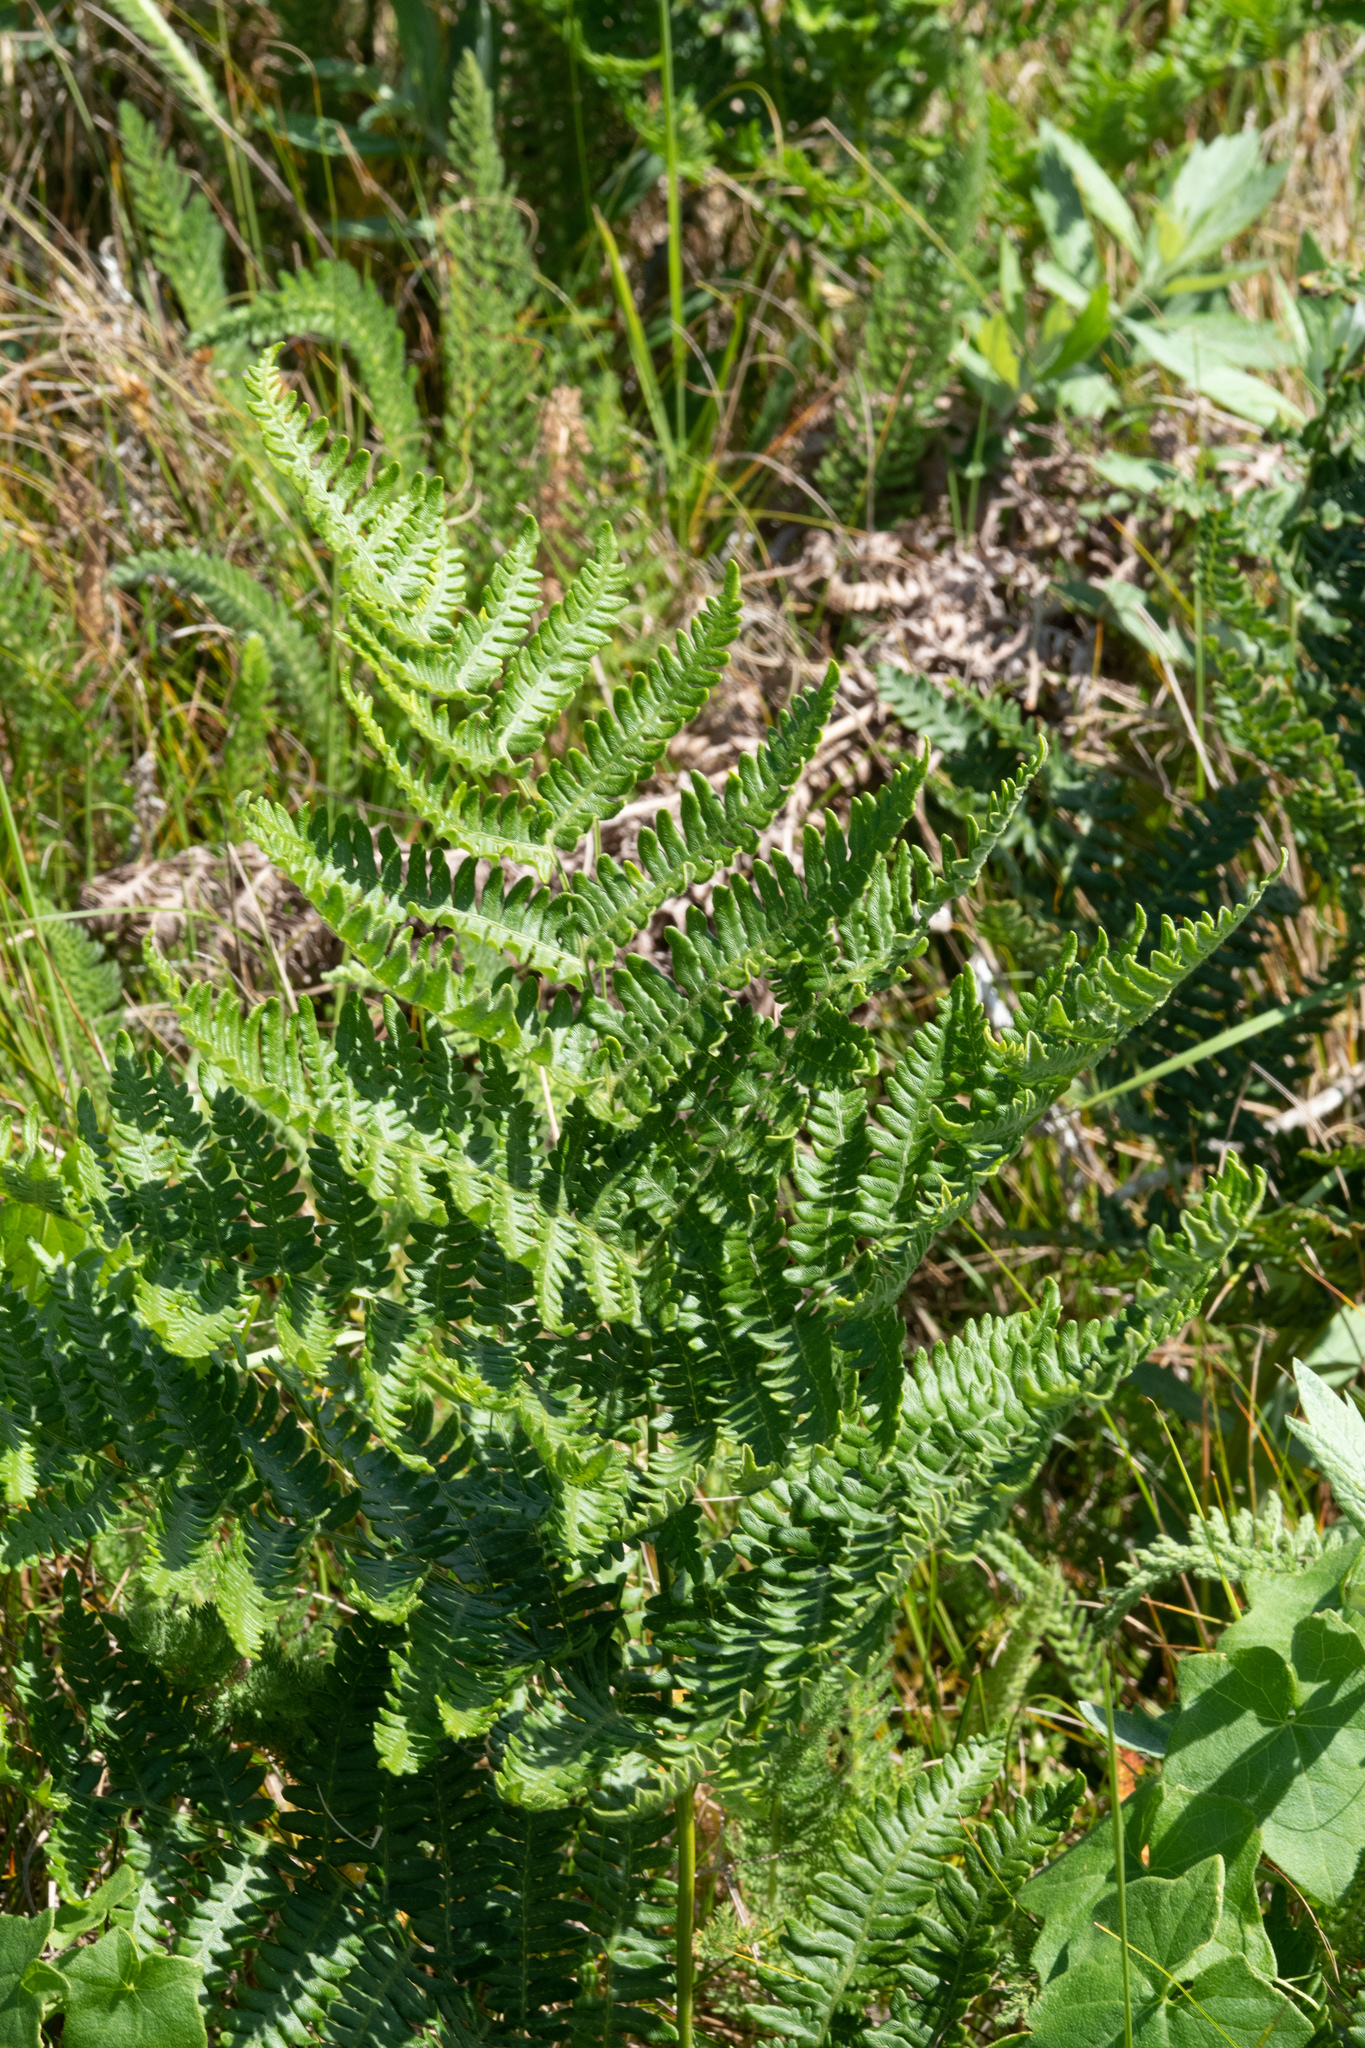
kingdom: Plantae
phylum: Tracheophyta
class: Polypodiopsida
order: Polypodiales
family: Dennstaedtiaceae
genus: Pteridium
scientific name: Pteridium aquilinum
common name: Bracken
